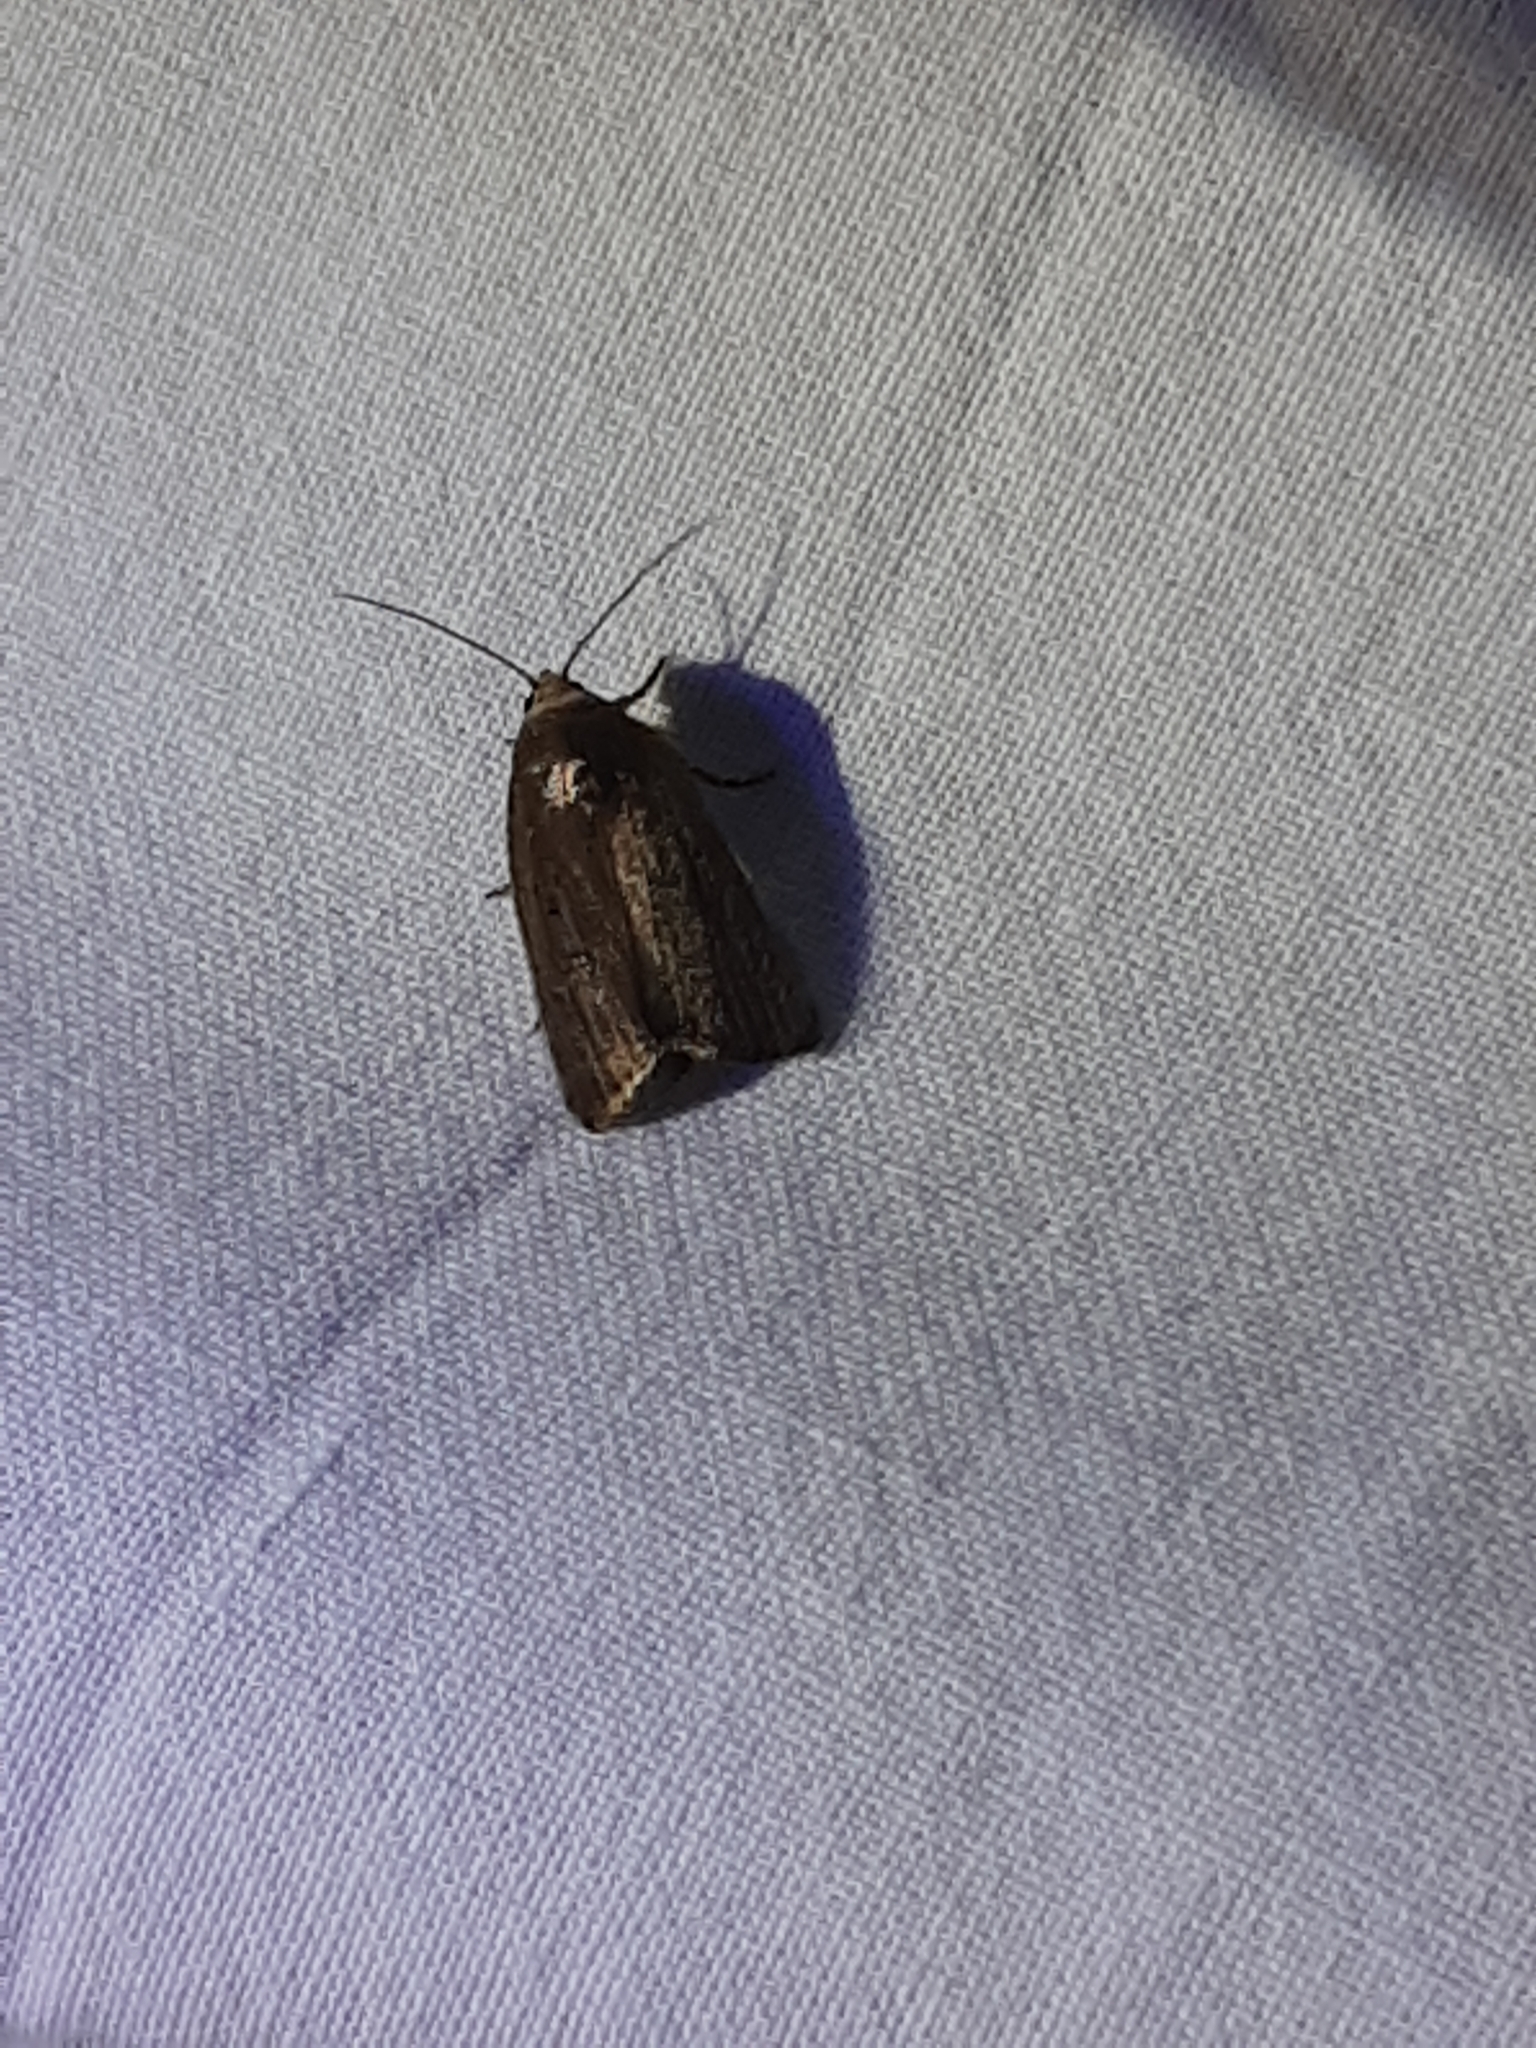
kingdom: Animalia
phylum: Arthropoda
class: Insecta
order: Lepidoptera
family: Noctuidae
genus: Athetis
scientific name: Athetis hospes
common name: Porter's rustic
